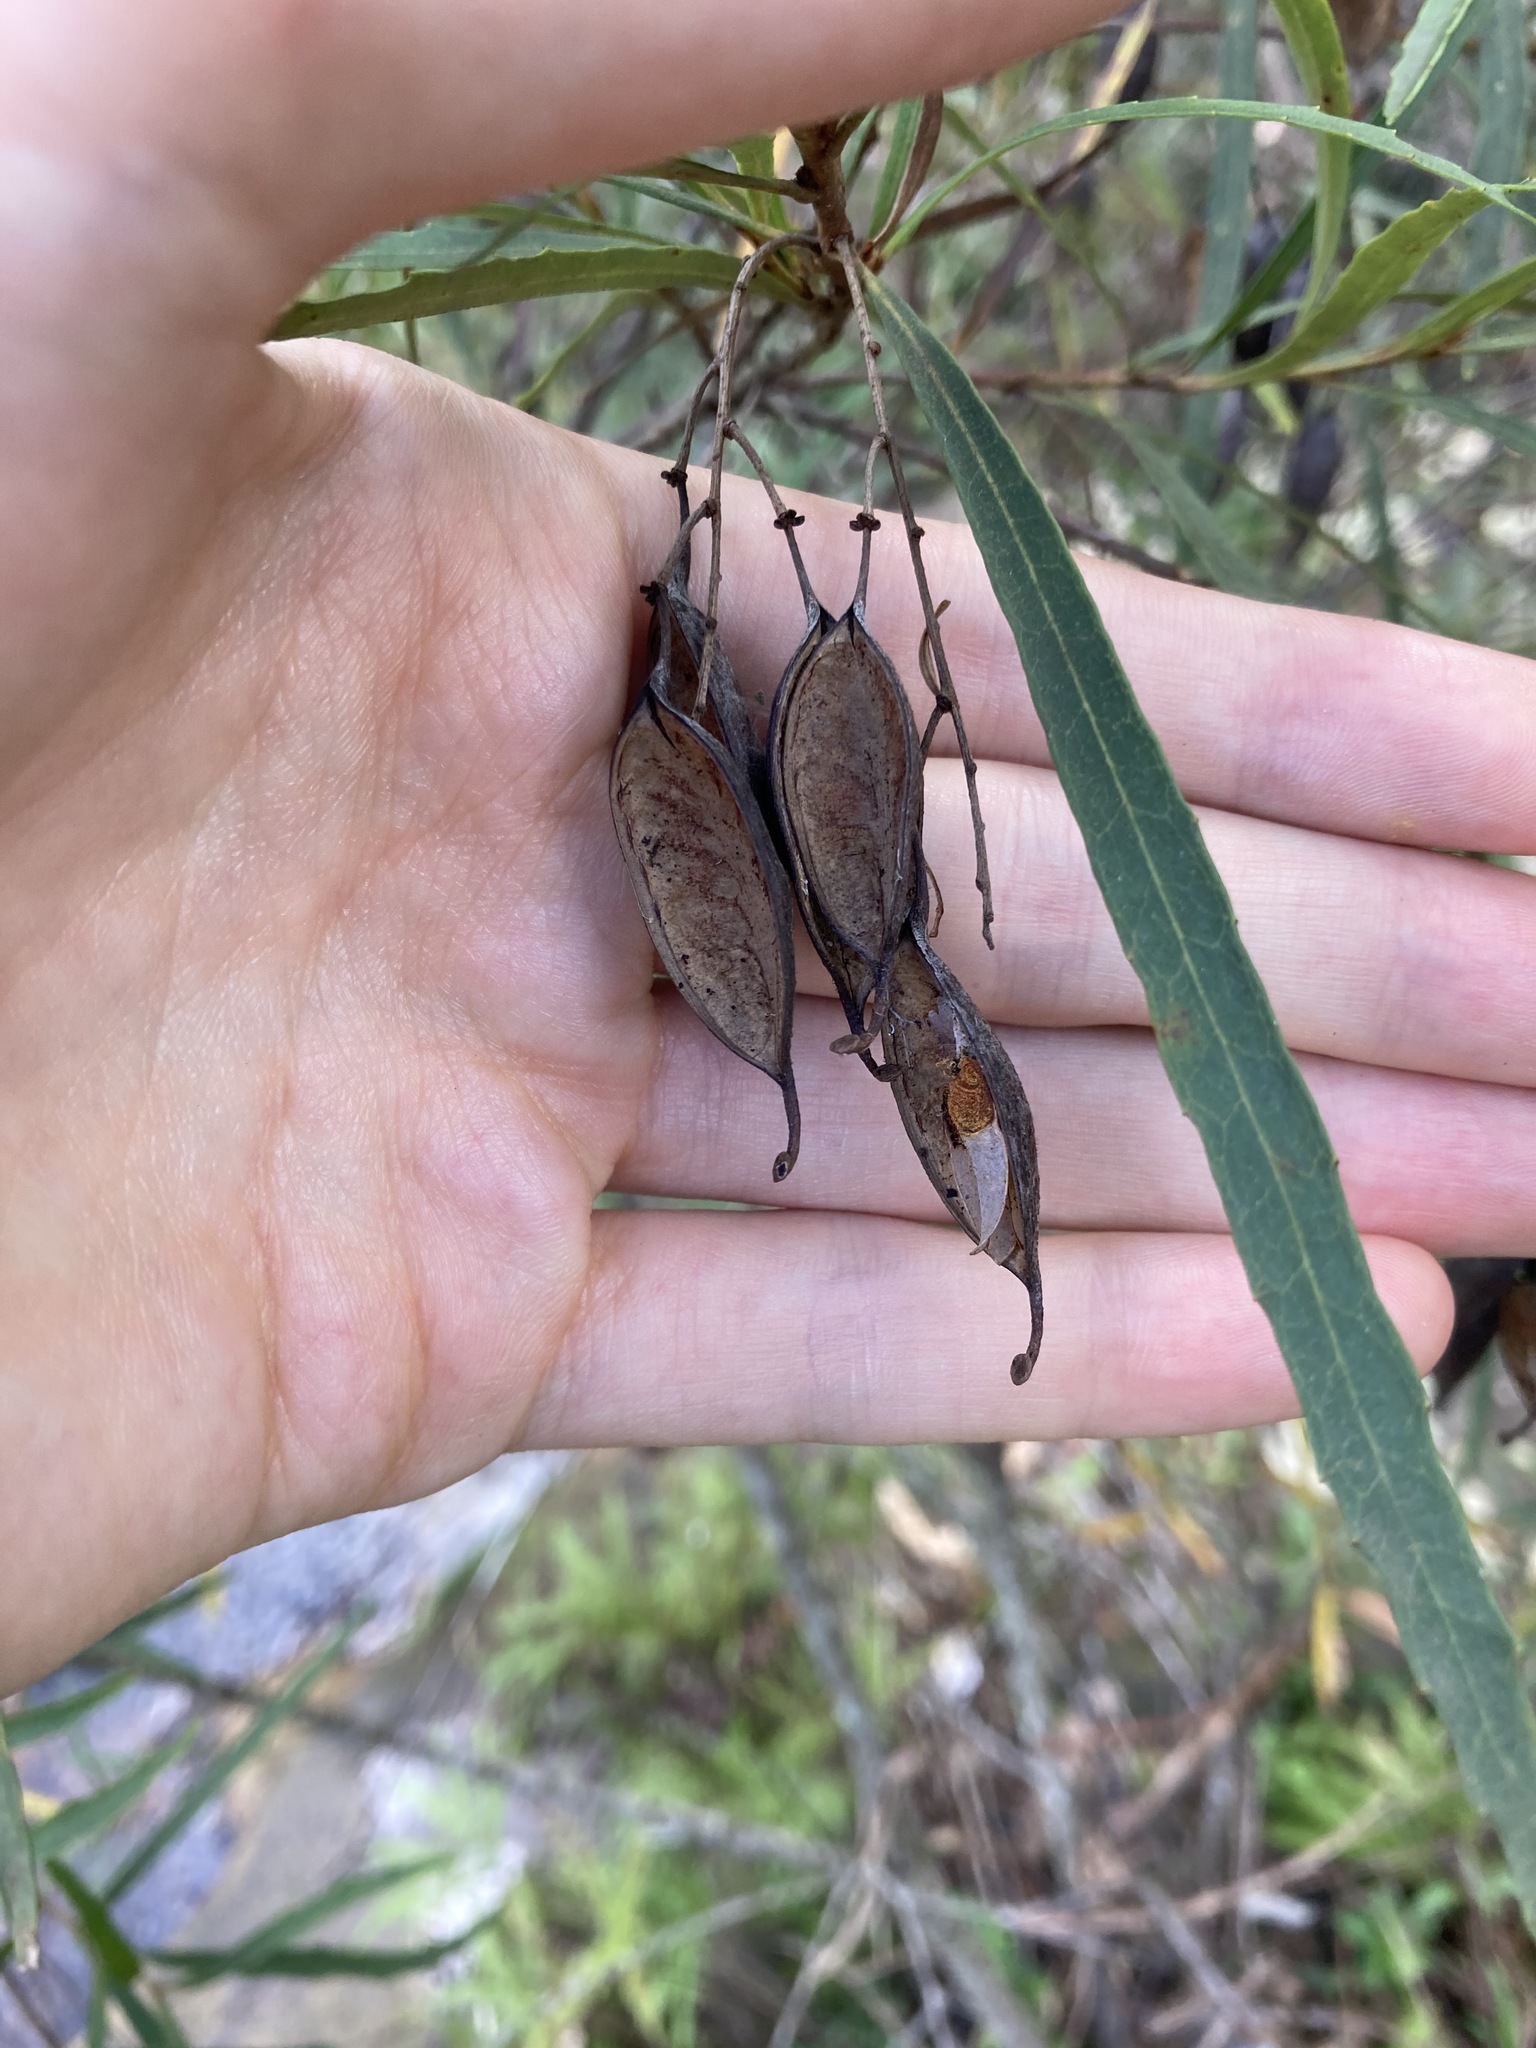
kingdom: Plantae
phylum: Tracheophyta
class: Magnoliopsida
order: Proteales
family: Proteaceae
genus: Lomatia
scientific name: Lomatia myricoides
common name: Longleaf lomatia
